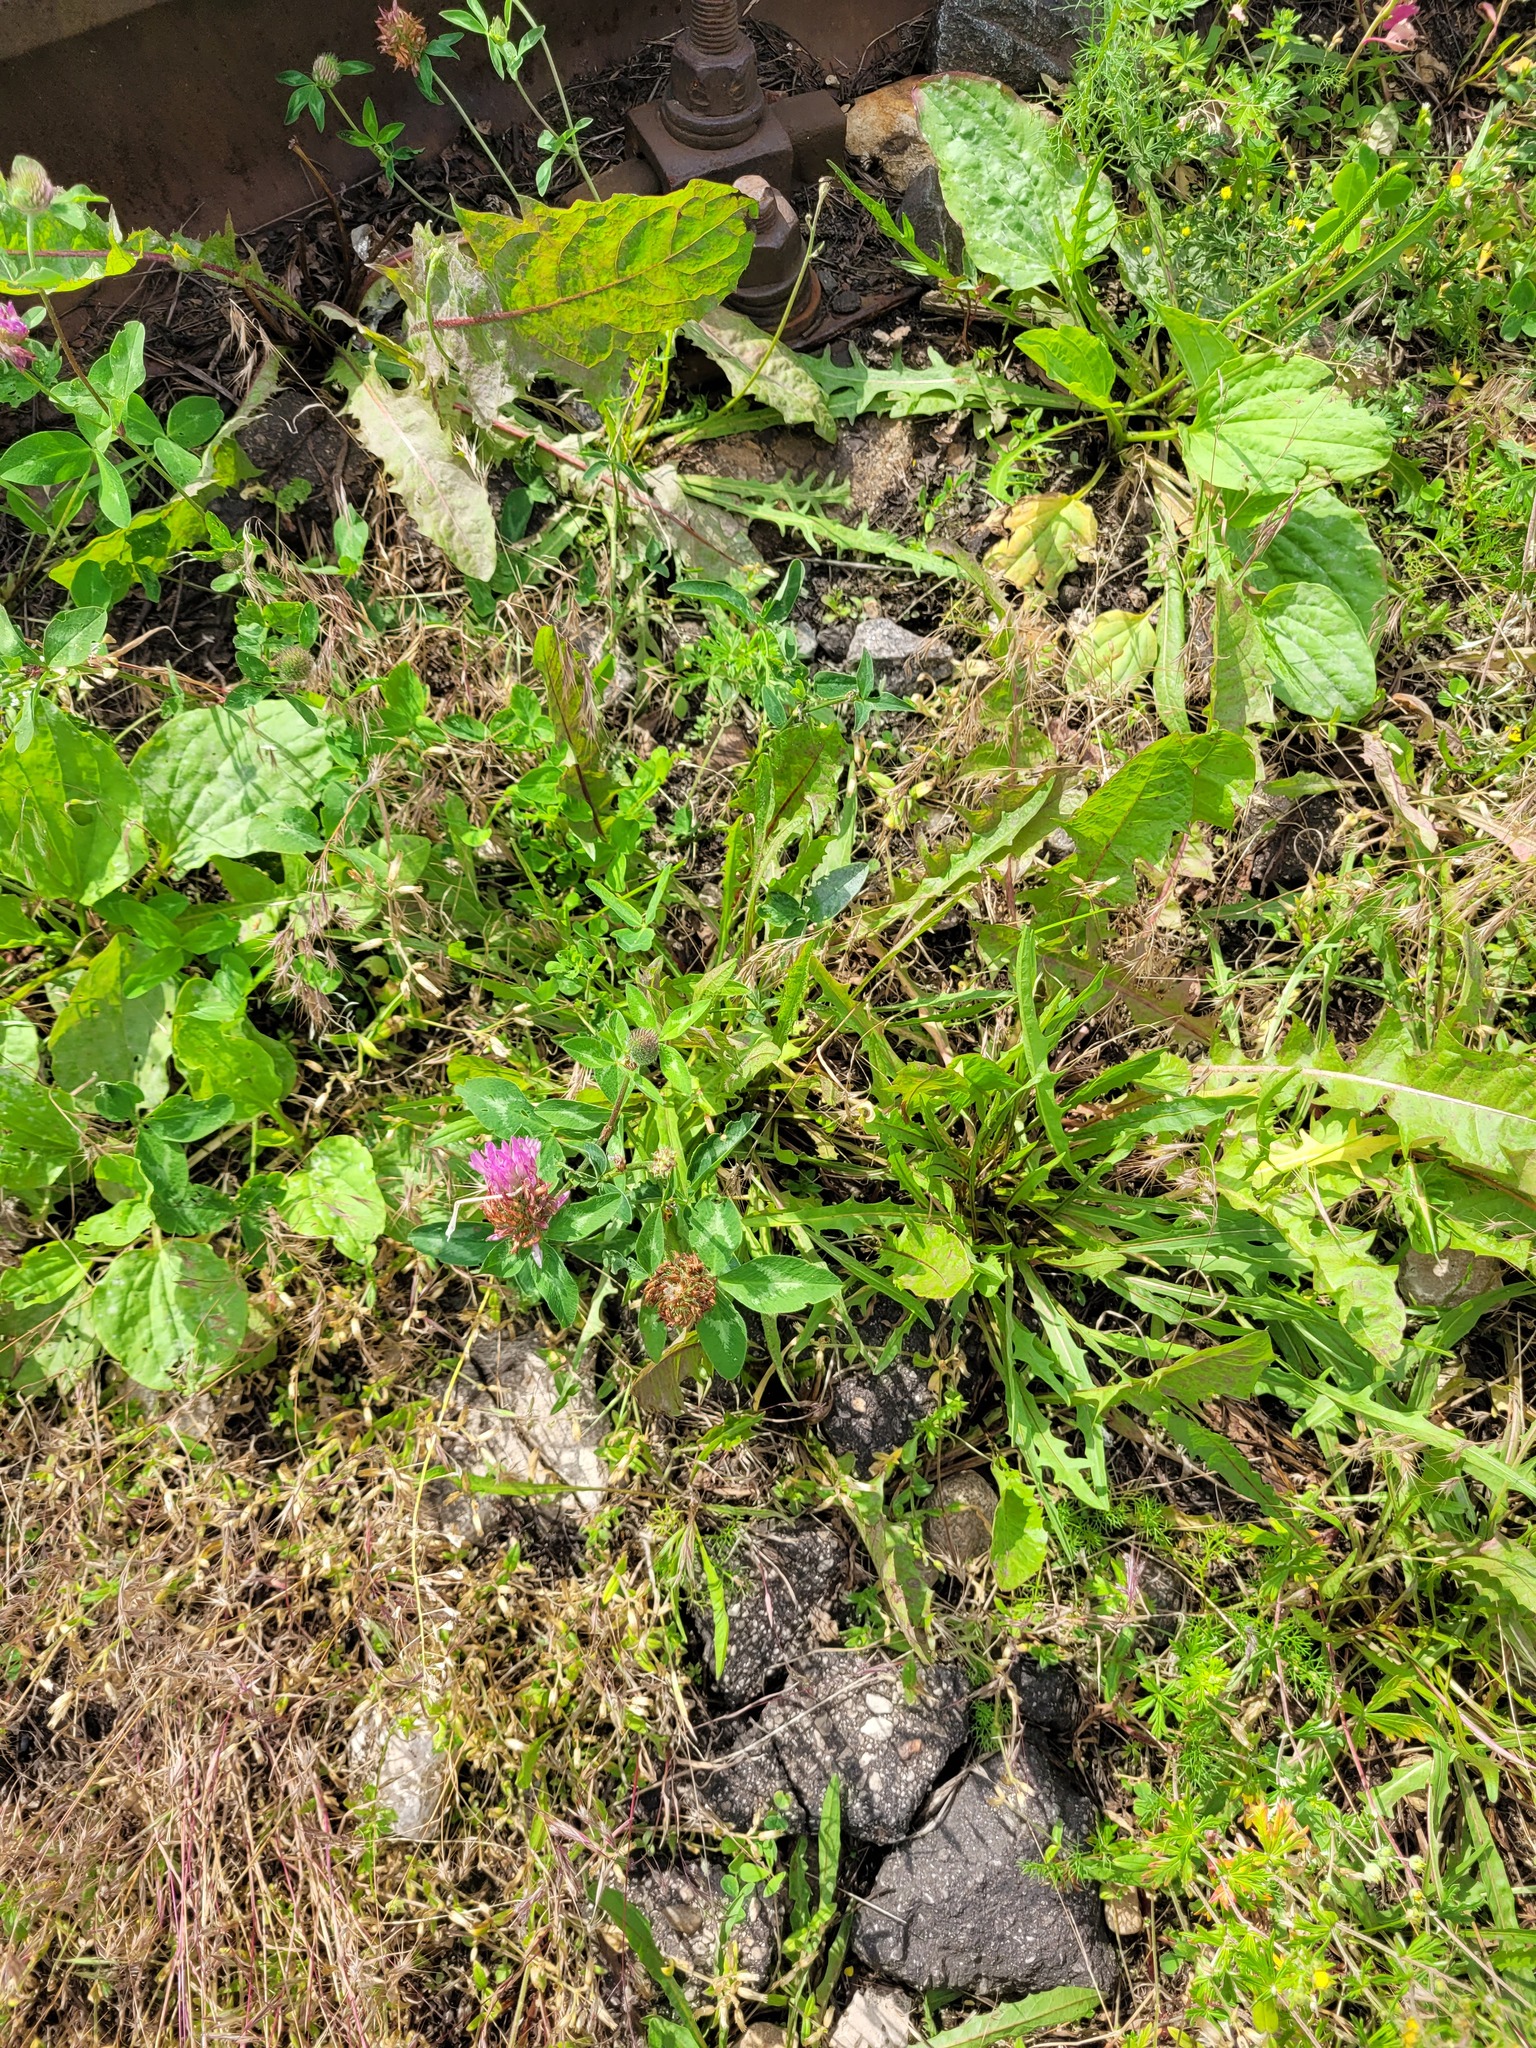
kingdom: Plantae
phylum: Tracheophyta
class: Magnoliopsida
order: Fabales
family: Fabaceae
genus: Trifolium
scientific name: Trifolium pratense
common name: Red clover
